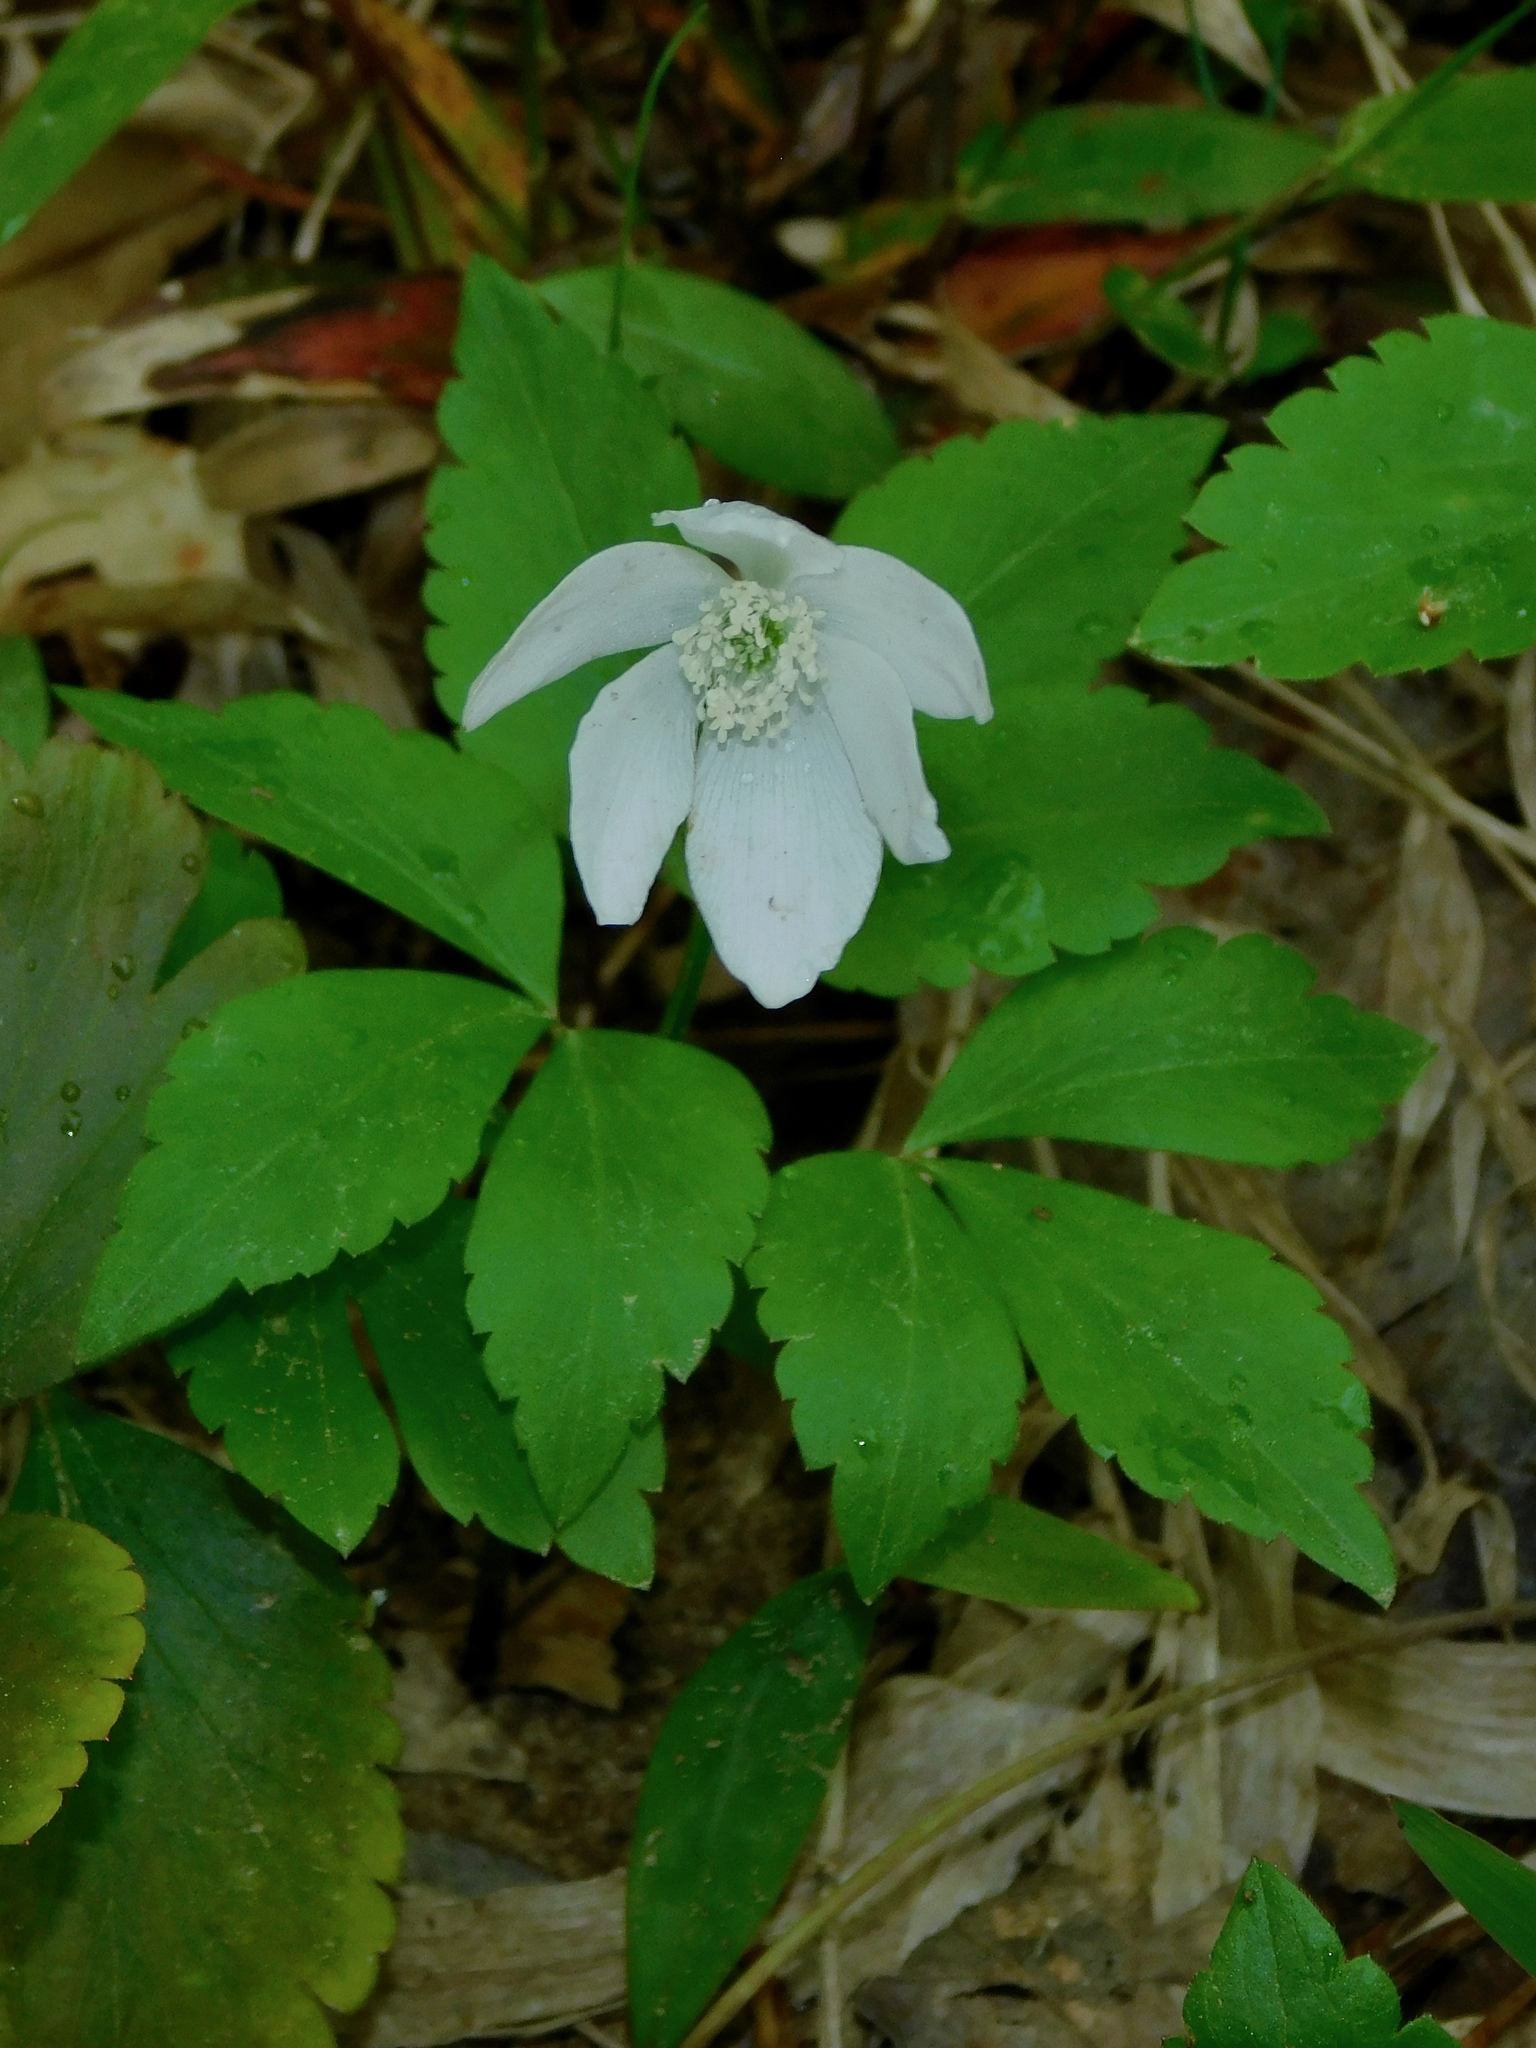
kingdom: Plantae
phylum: Tracheophyta
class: Magnoliopsida
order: Ranunculales
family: Ranunculaceae
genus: Anemone
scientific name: Anemone lancifolia
